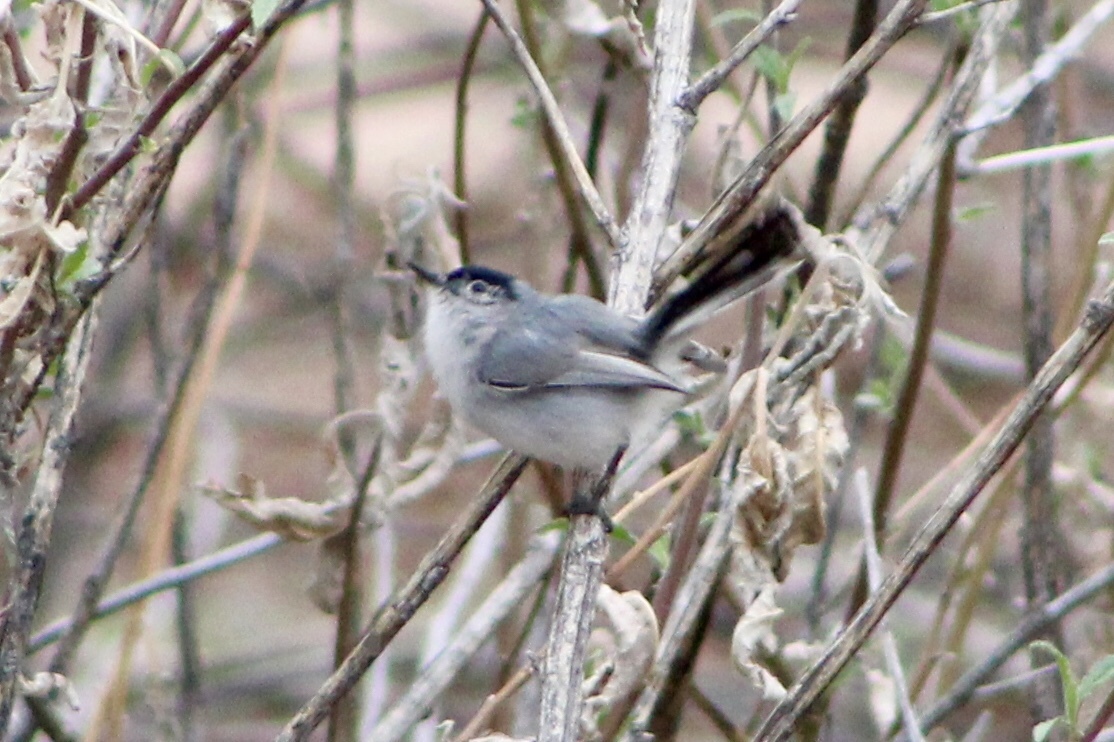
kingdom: Animalia
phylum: Chordata
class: Aves
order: Passeriformes
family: Polioptilidae
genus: Polioptila
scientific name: Polioptila melanura
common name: Black-tailed gnatcatcher
